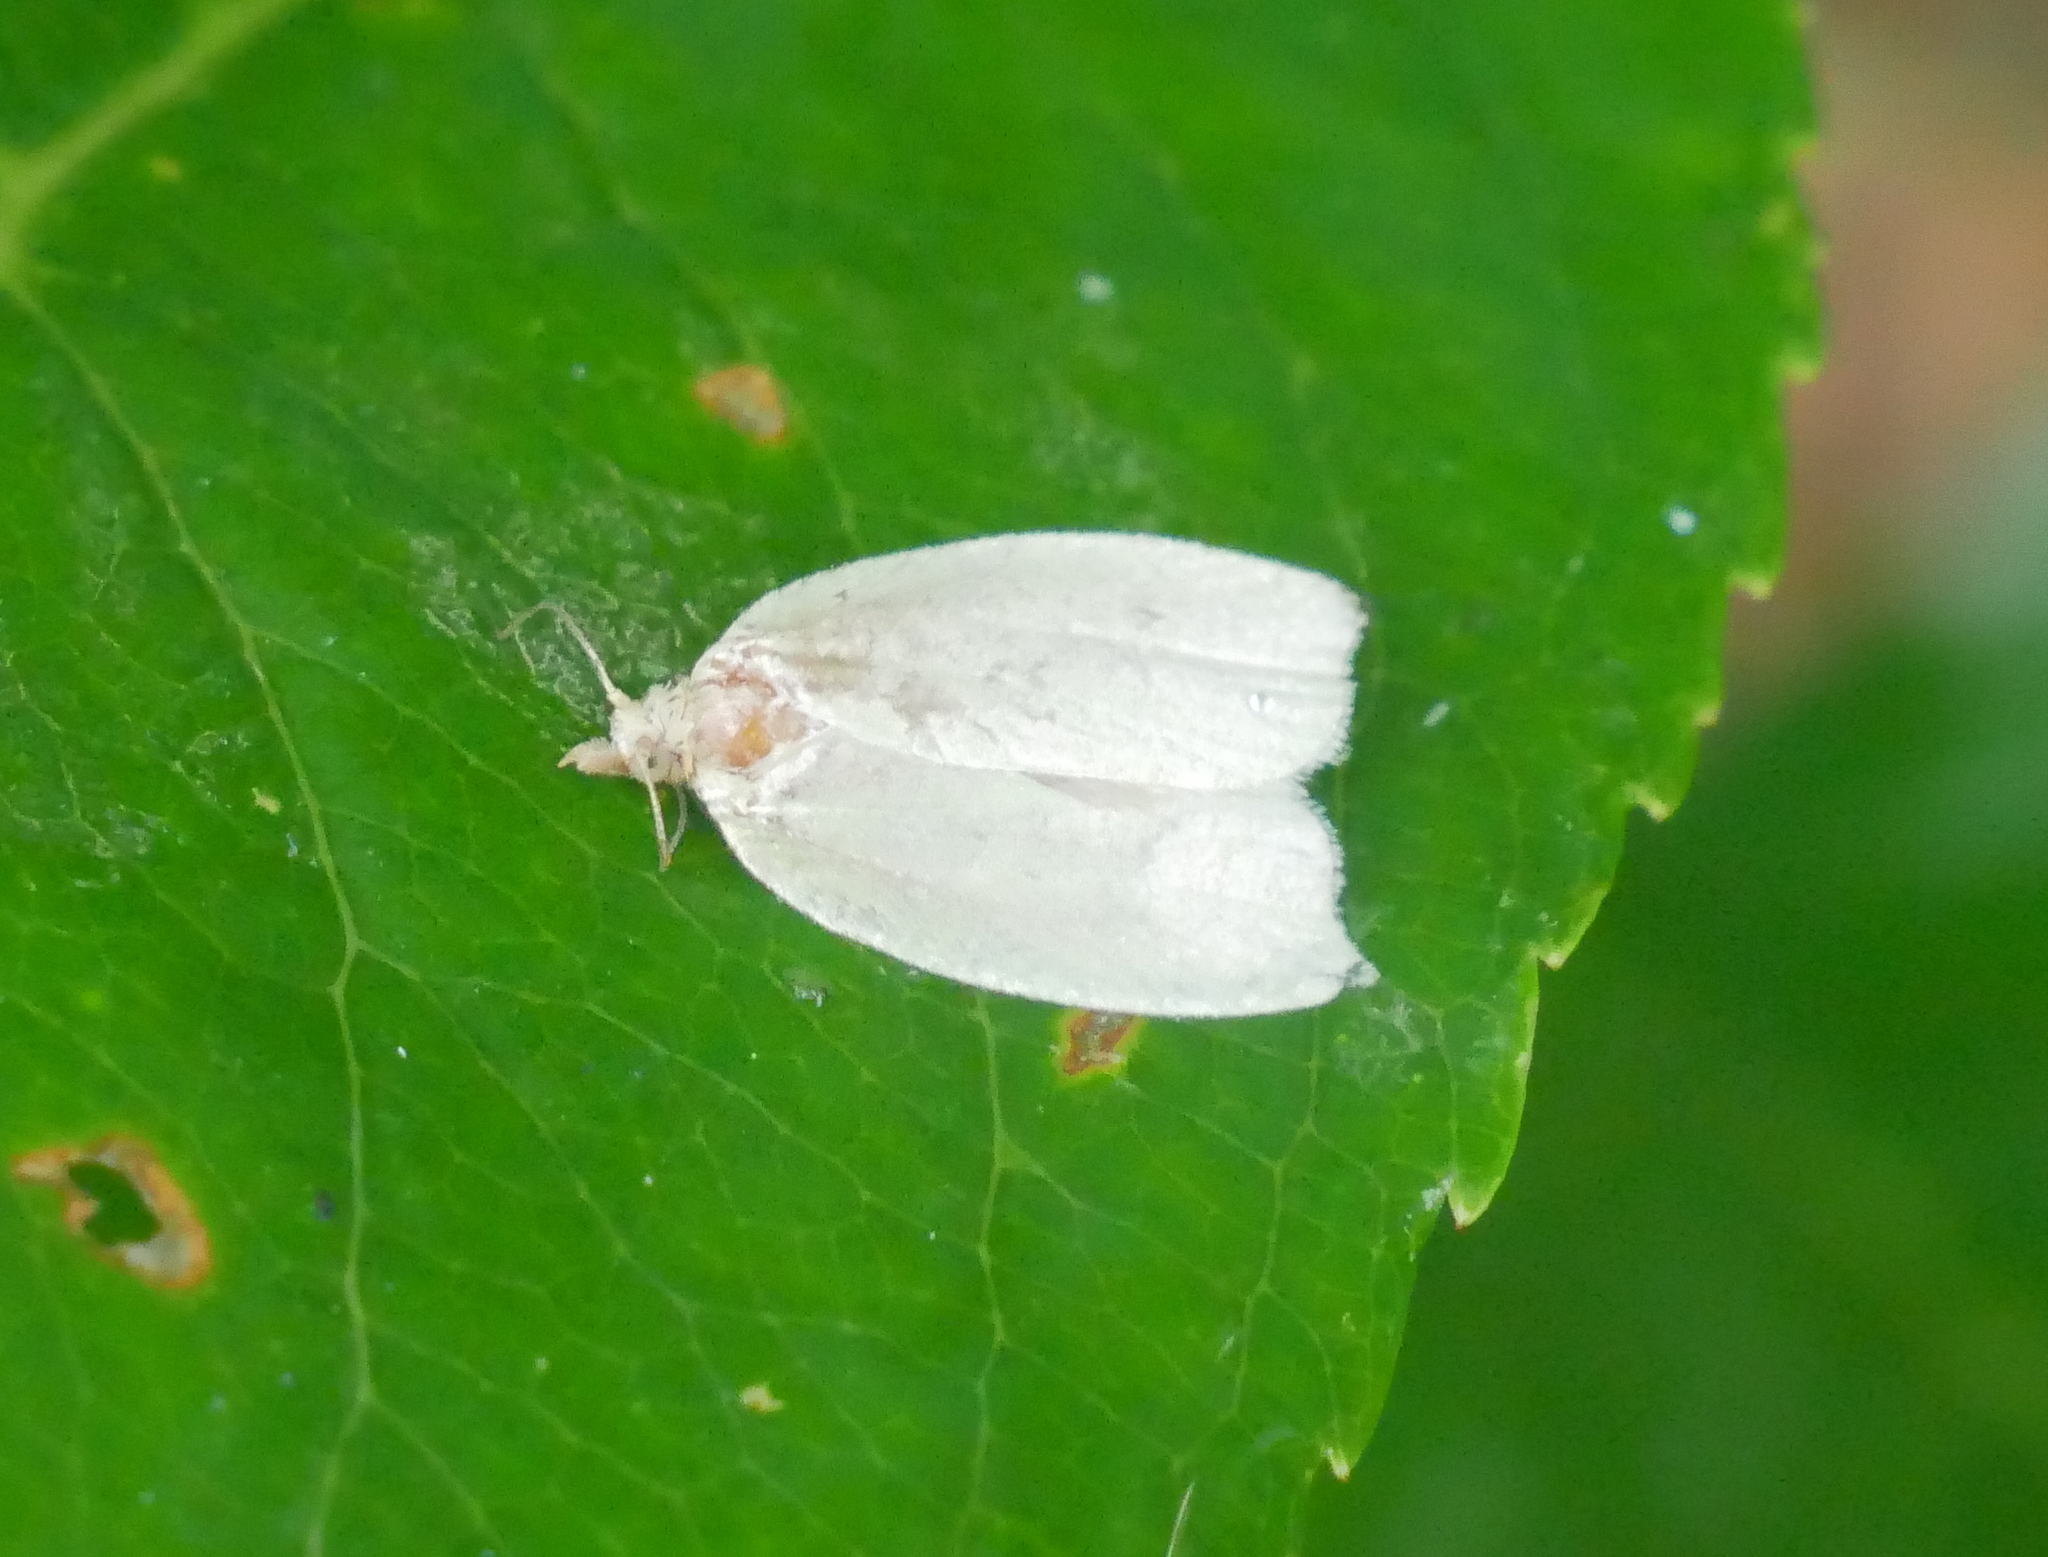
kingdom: Animalia
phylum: Arthropoda
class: Insecta
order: Lepidoptera
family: Tortricidae
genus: Tortrix
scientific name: Tortrix viridana
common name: Green oak tortrix
